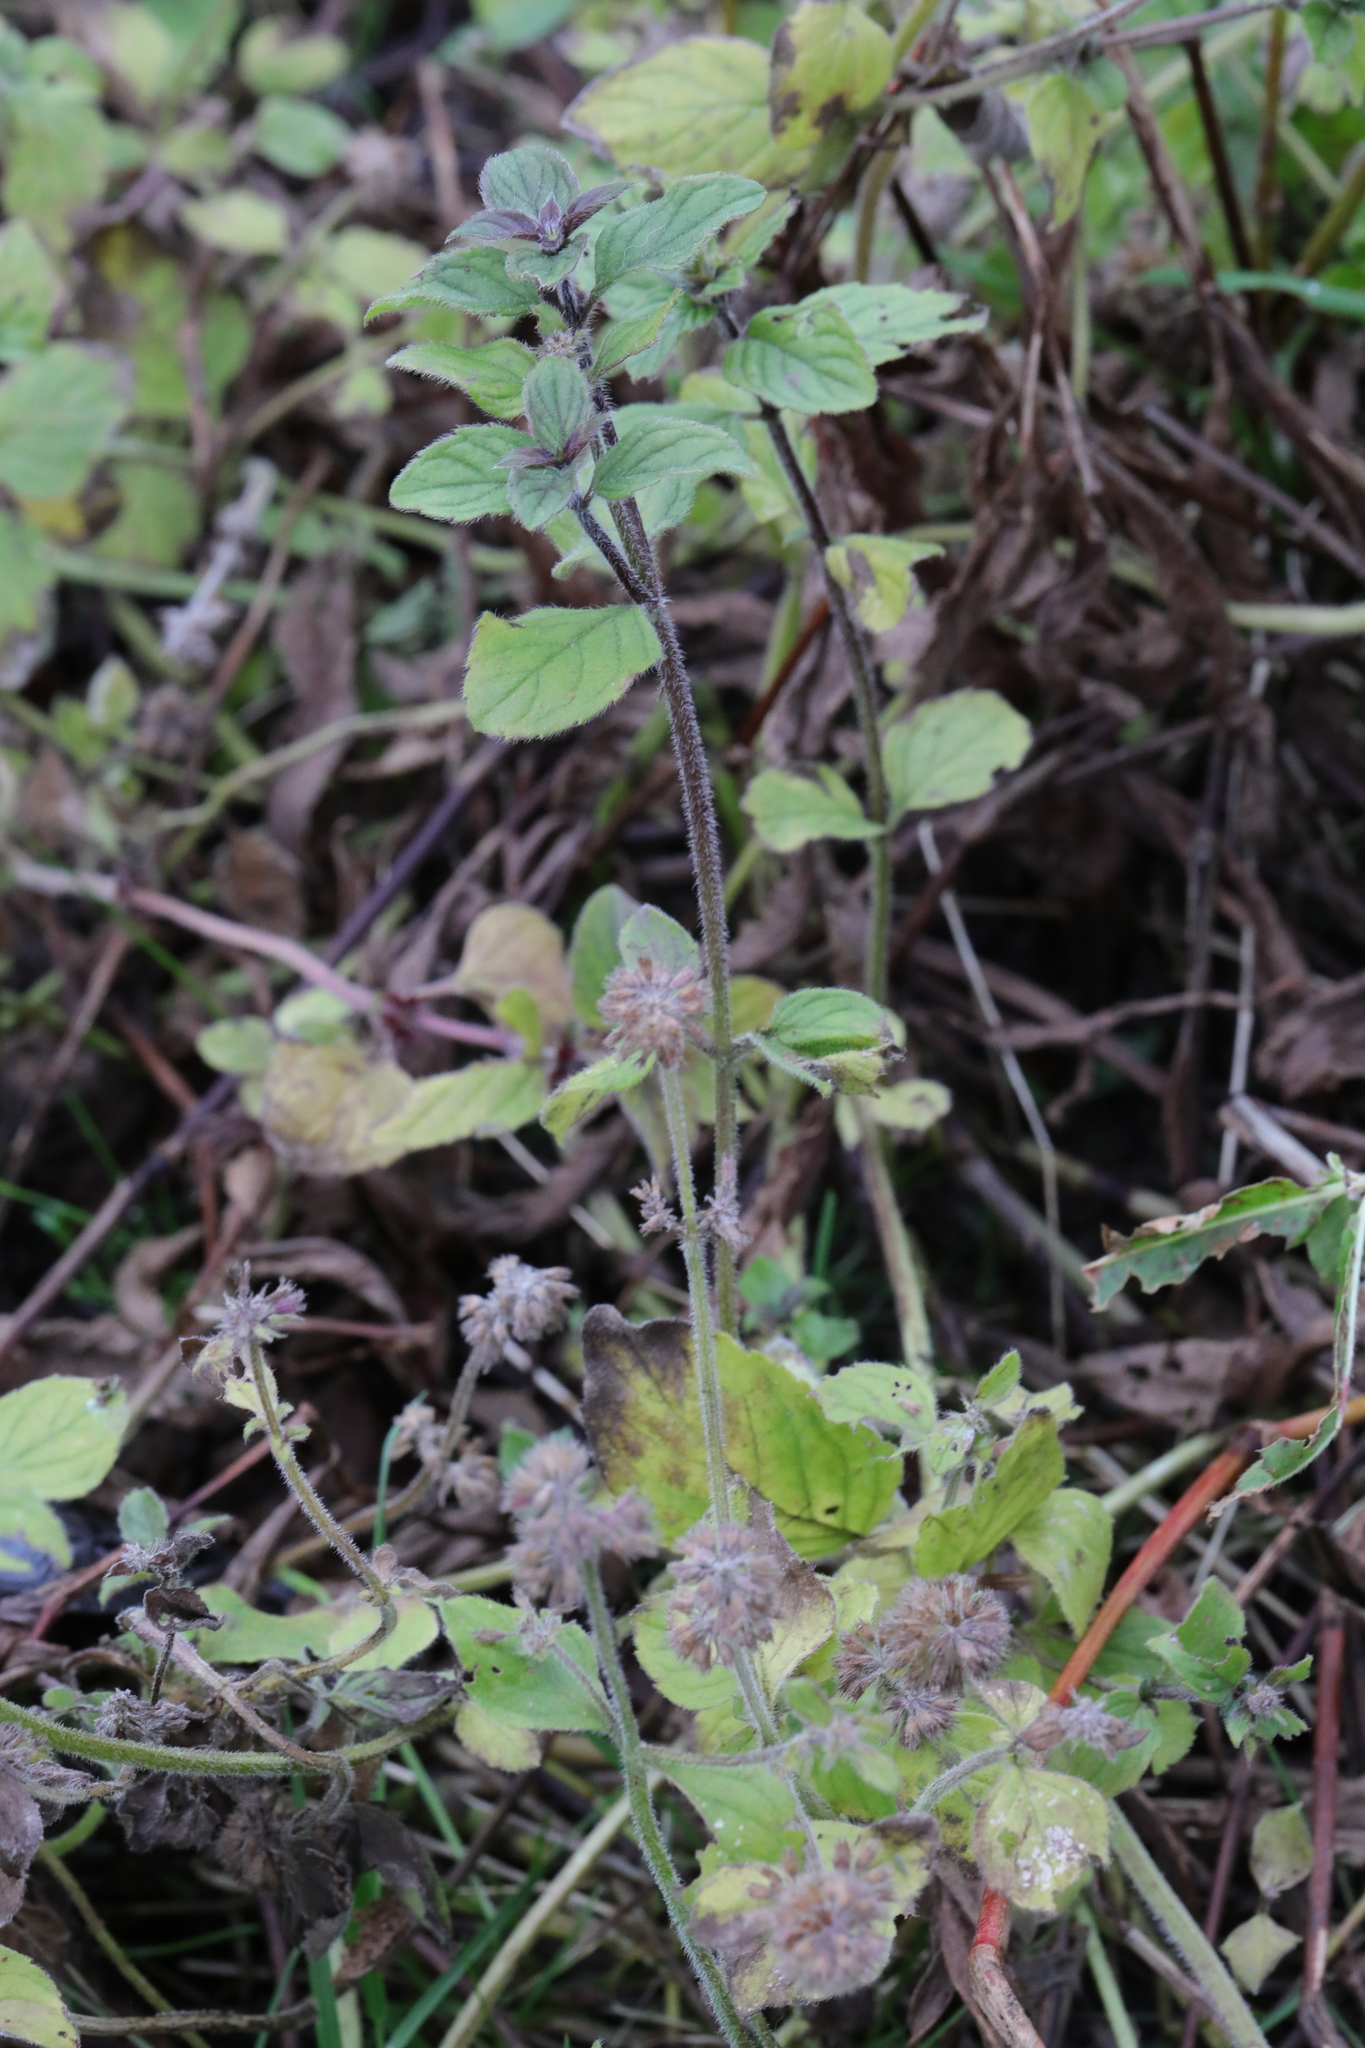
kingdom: Plantae
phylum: Tracheophyta
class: Magnoliopsida
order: Lamiales
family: Lamiaceae
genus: Mentha
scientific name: Mentha aquatica
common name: Water mint
